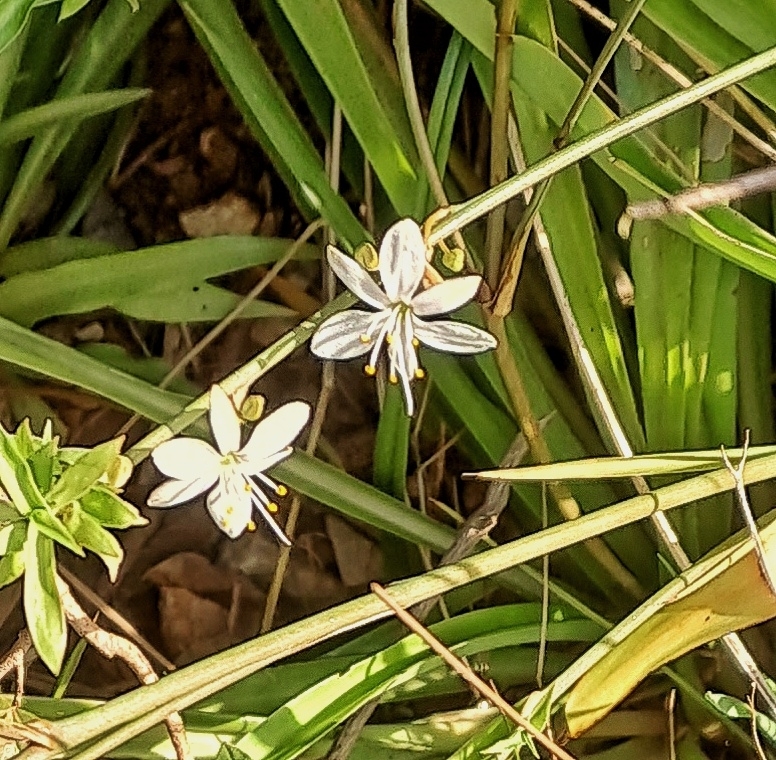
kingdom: Plantae
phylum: Tracheophyta
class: Liliopsida
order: Asparagales
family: Asparagaceae
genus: Chlorophytum
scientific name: Chlorophytum comosum
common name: Spider plant
